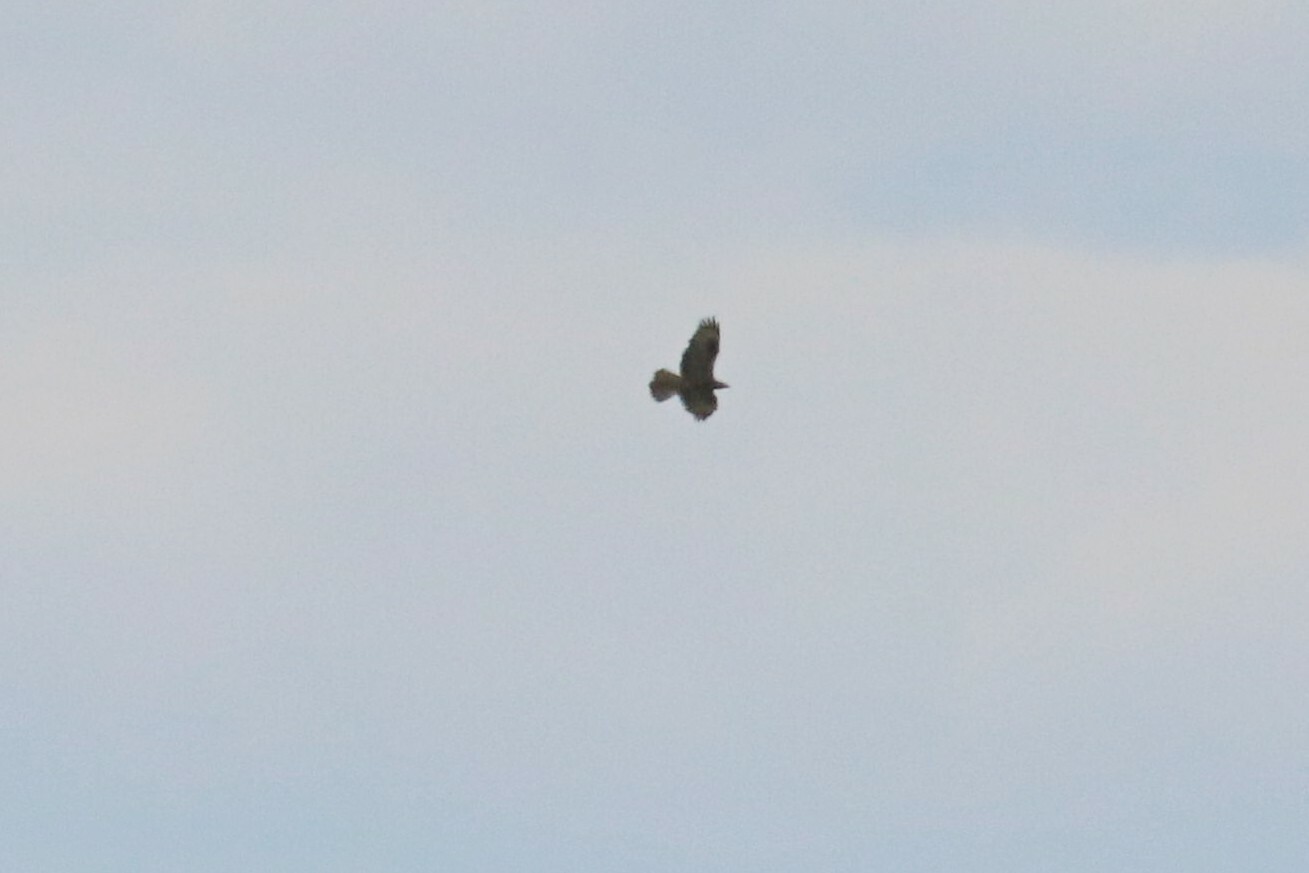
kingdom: Animalia
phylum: Chordata
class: Aves
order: Accipitriformes
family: Accipitridae
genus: Pernis
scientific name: Pernis apivorus
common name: European honey buzzard
